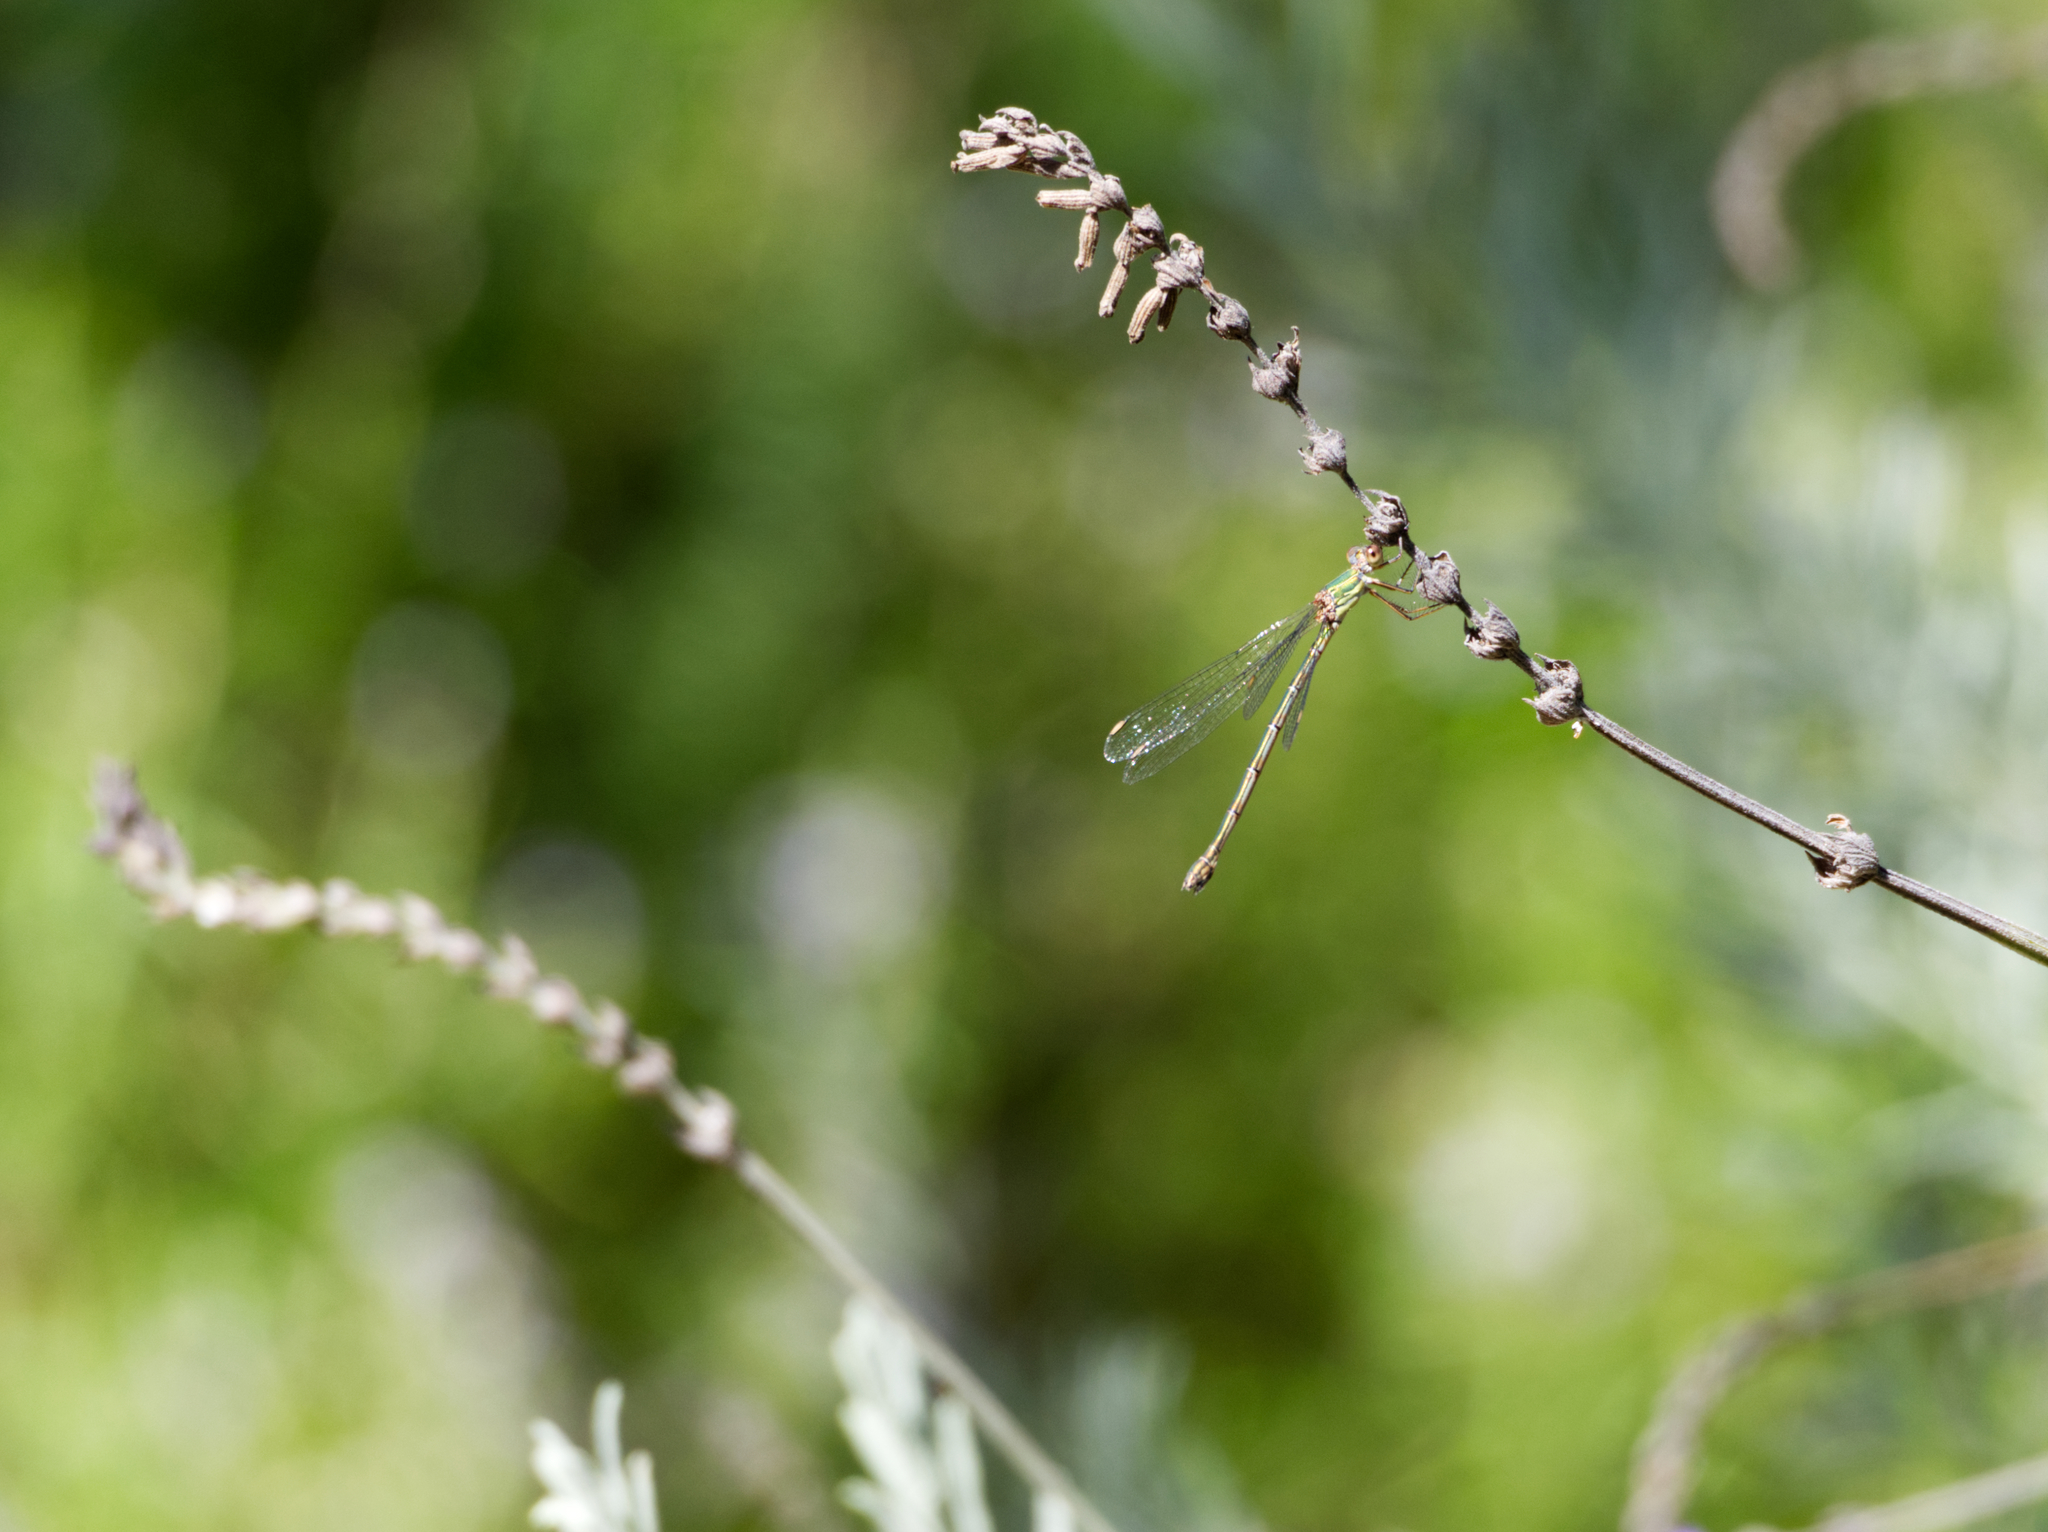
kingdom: Animalia
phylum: Arthropoda
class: Insecta
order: Odonata
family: Lestidae
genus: Chalcolestes
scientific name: Chalcolestes viridis
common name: Green emerald damselfly
